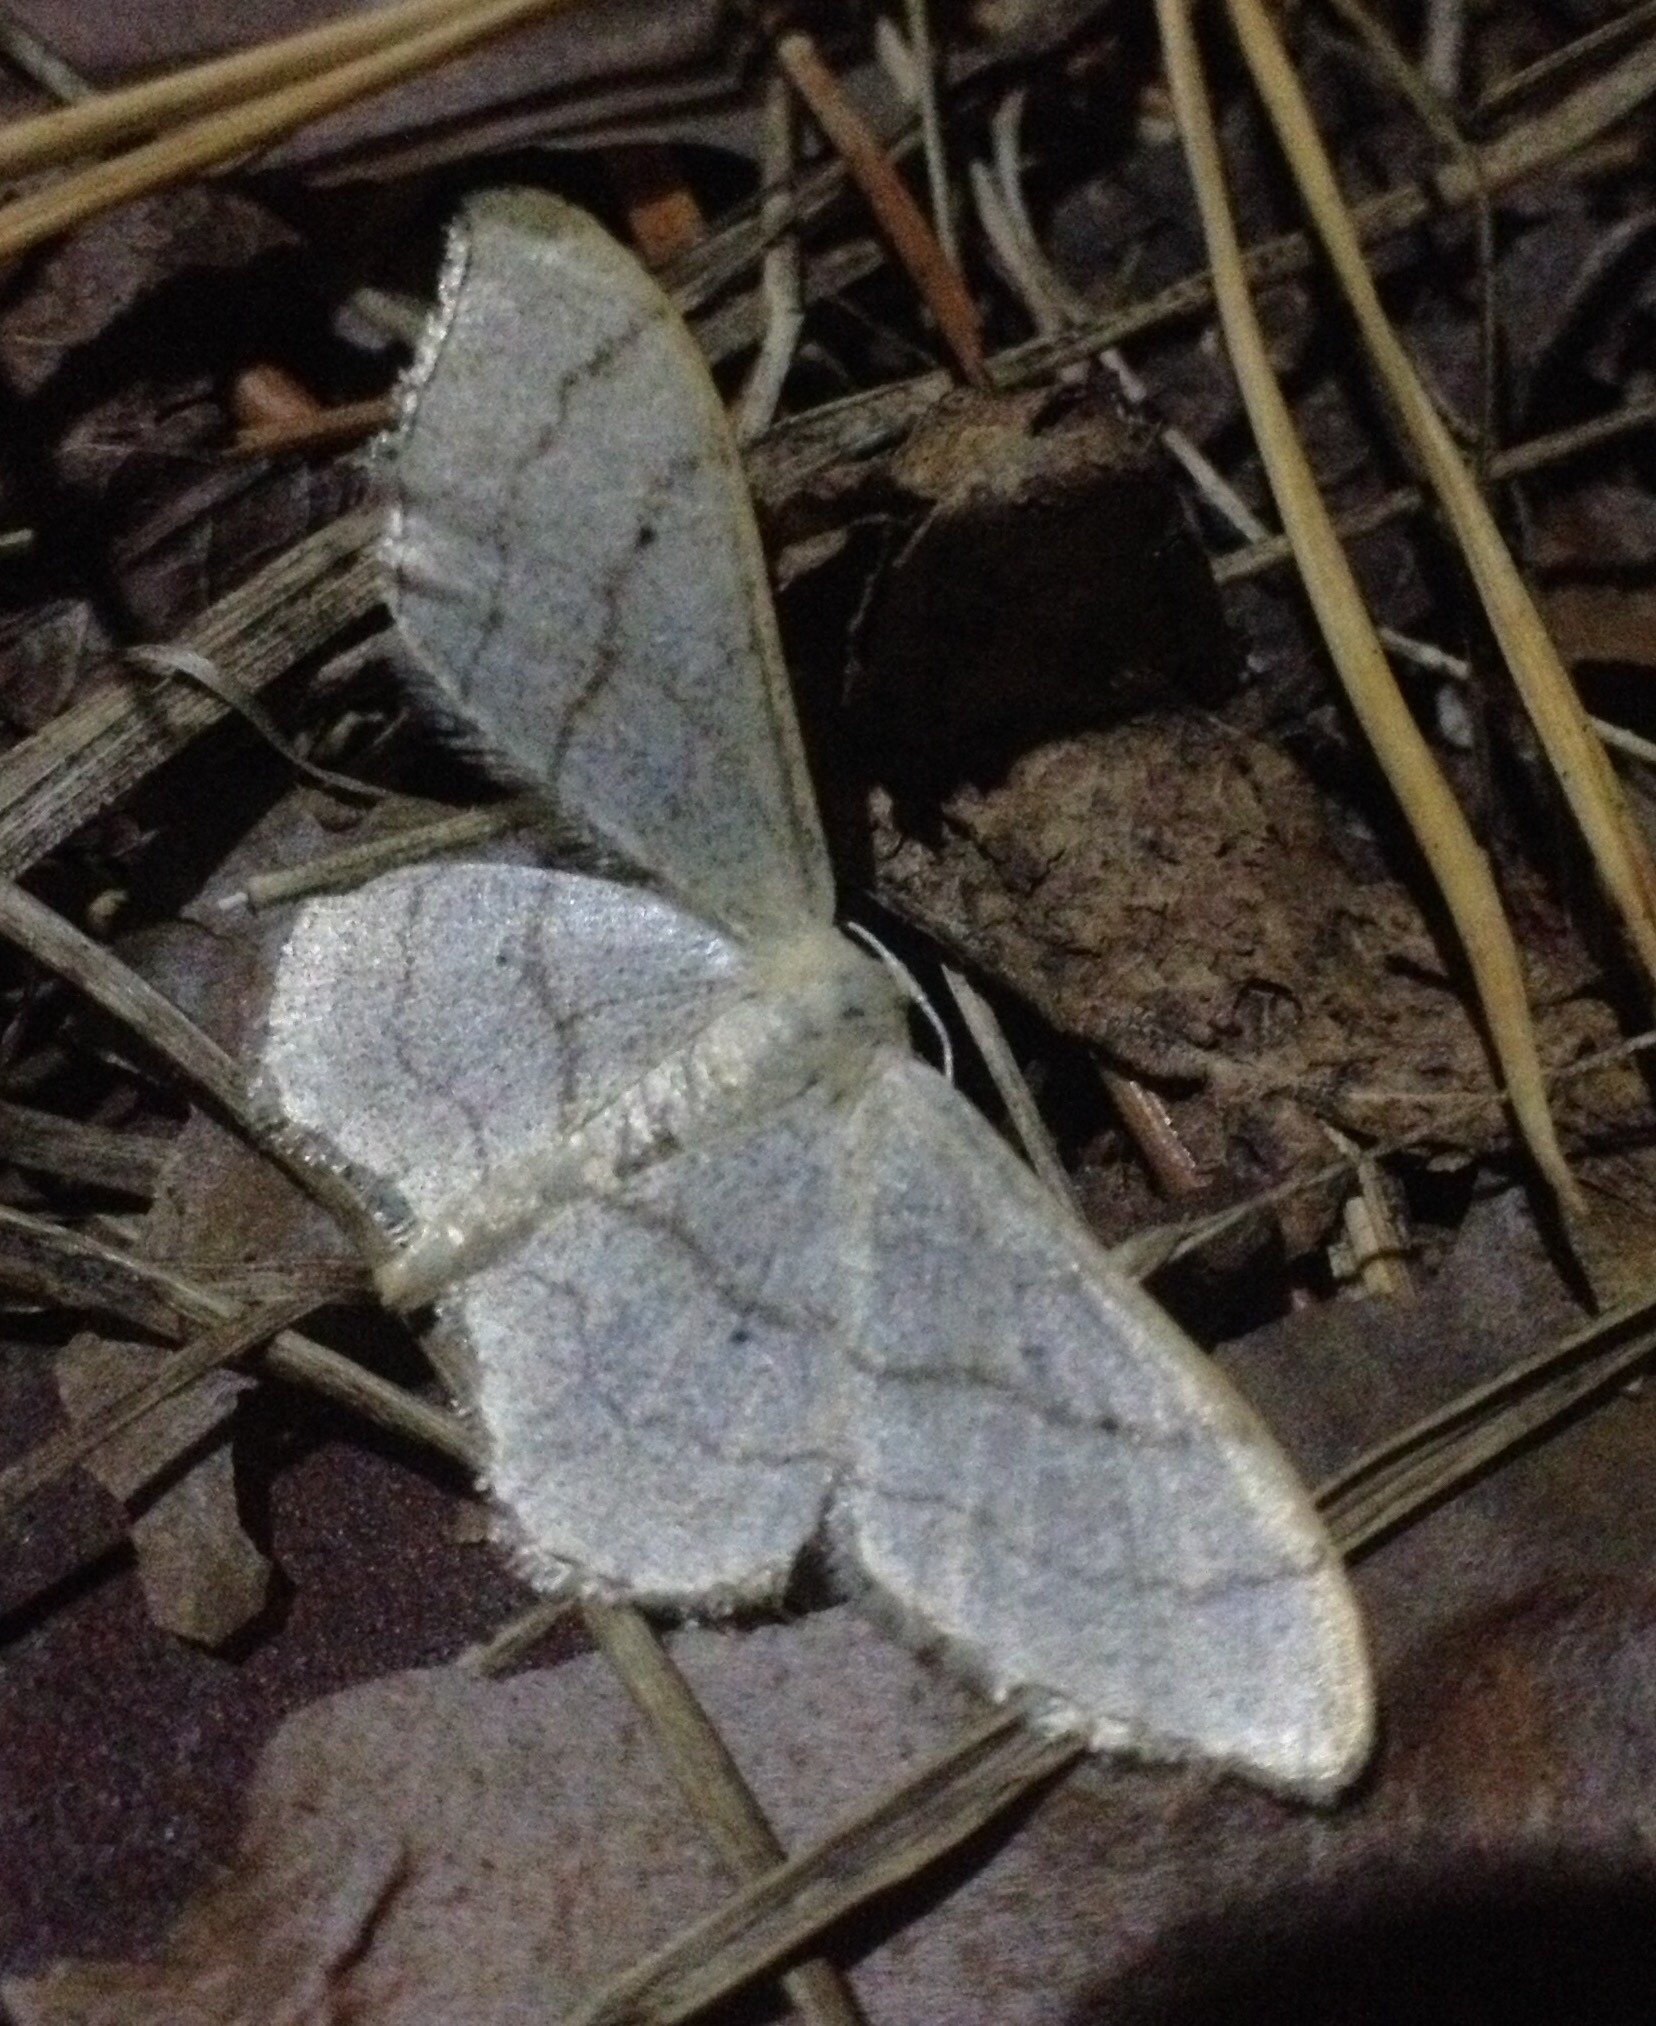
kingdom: Animalia
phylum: Arthropoda
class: Insecta
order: Lepidoptera
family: Geometridae
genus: Idaea
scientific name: Idaea aversata
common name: Riband wave
